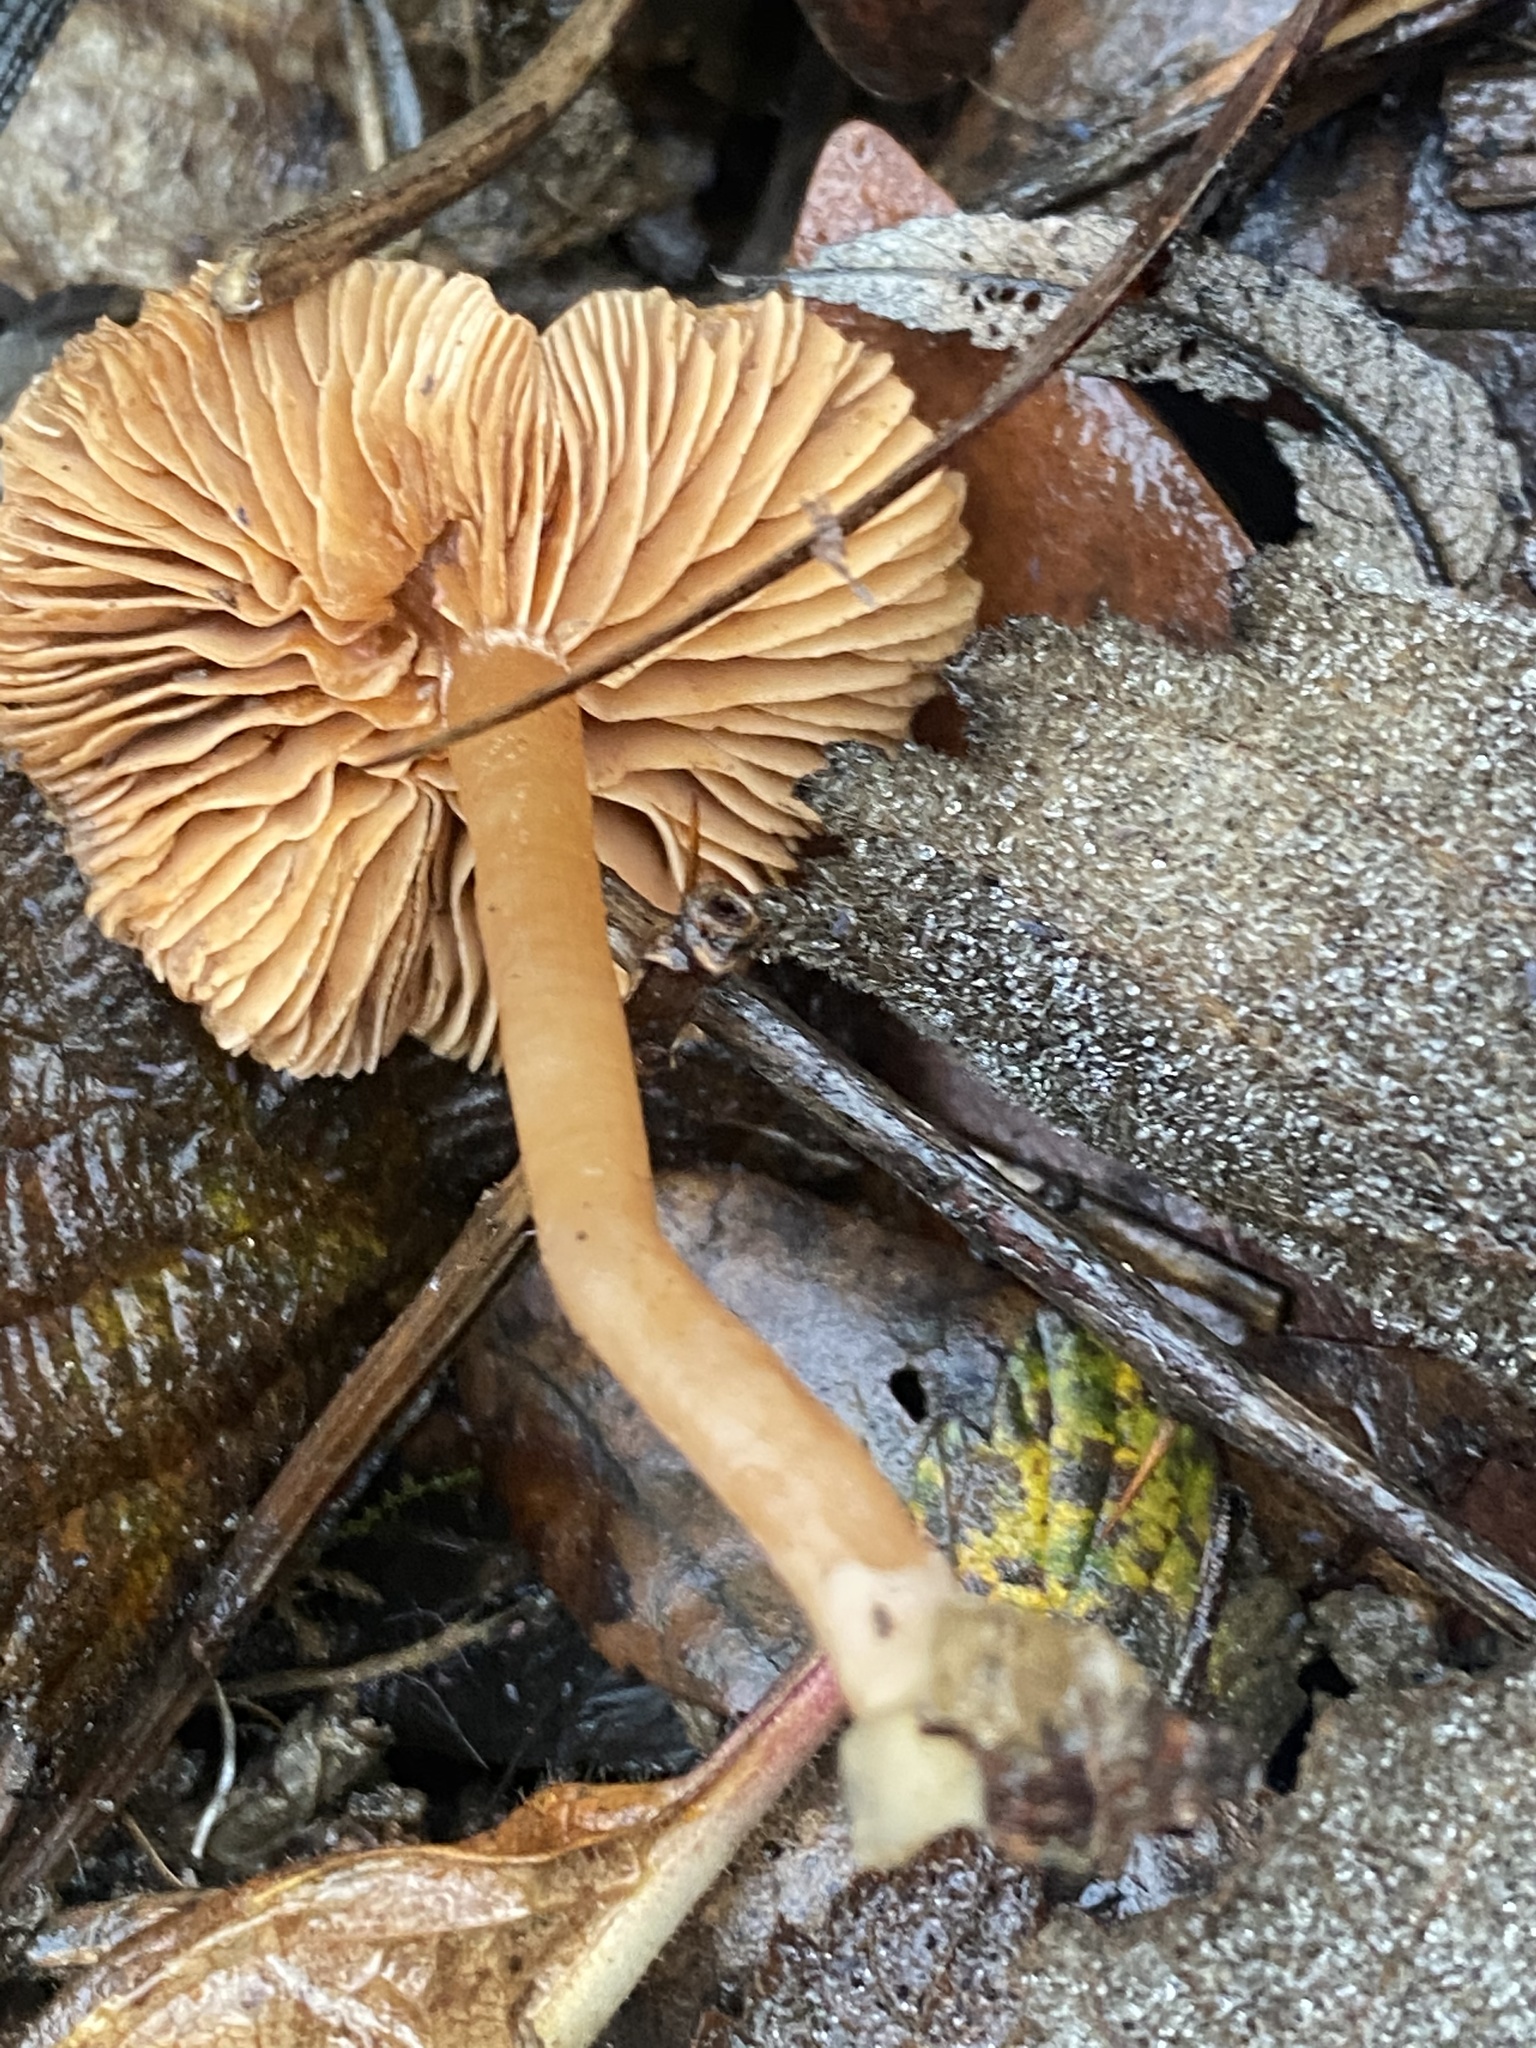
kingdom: Fungi
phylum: Basidiomycota
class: Agaricomycetes
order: Agaricales
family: Tubariaceae
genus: Tubaria
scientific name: Tubaria furfuracea
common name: Scurfy twiglet
